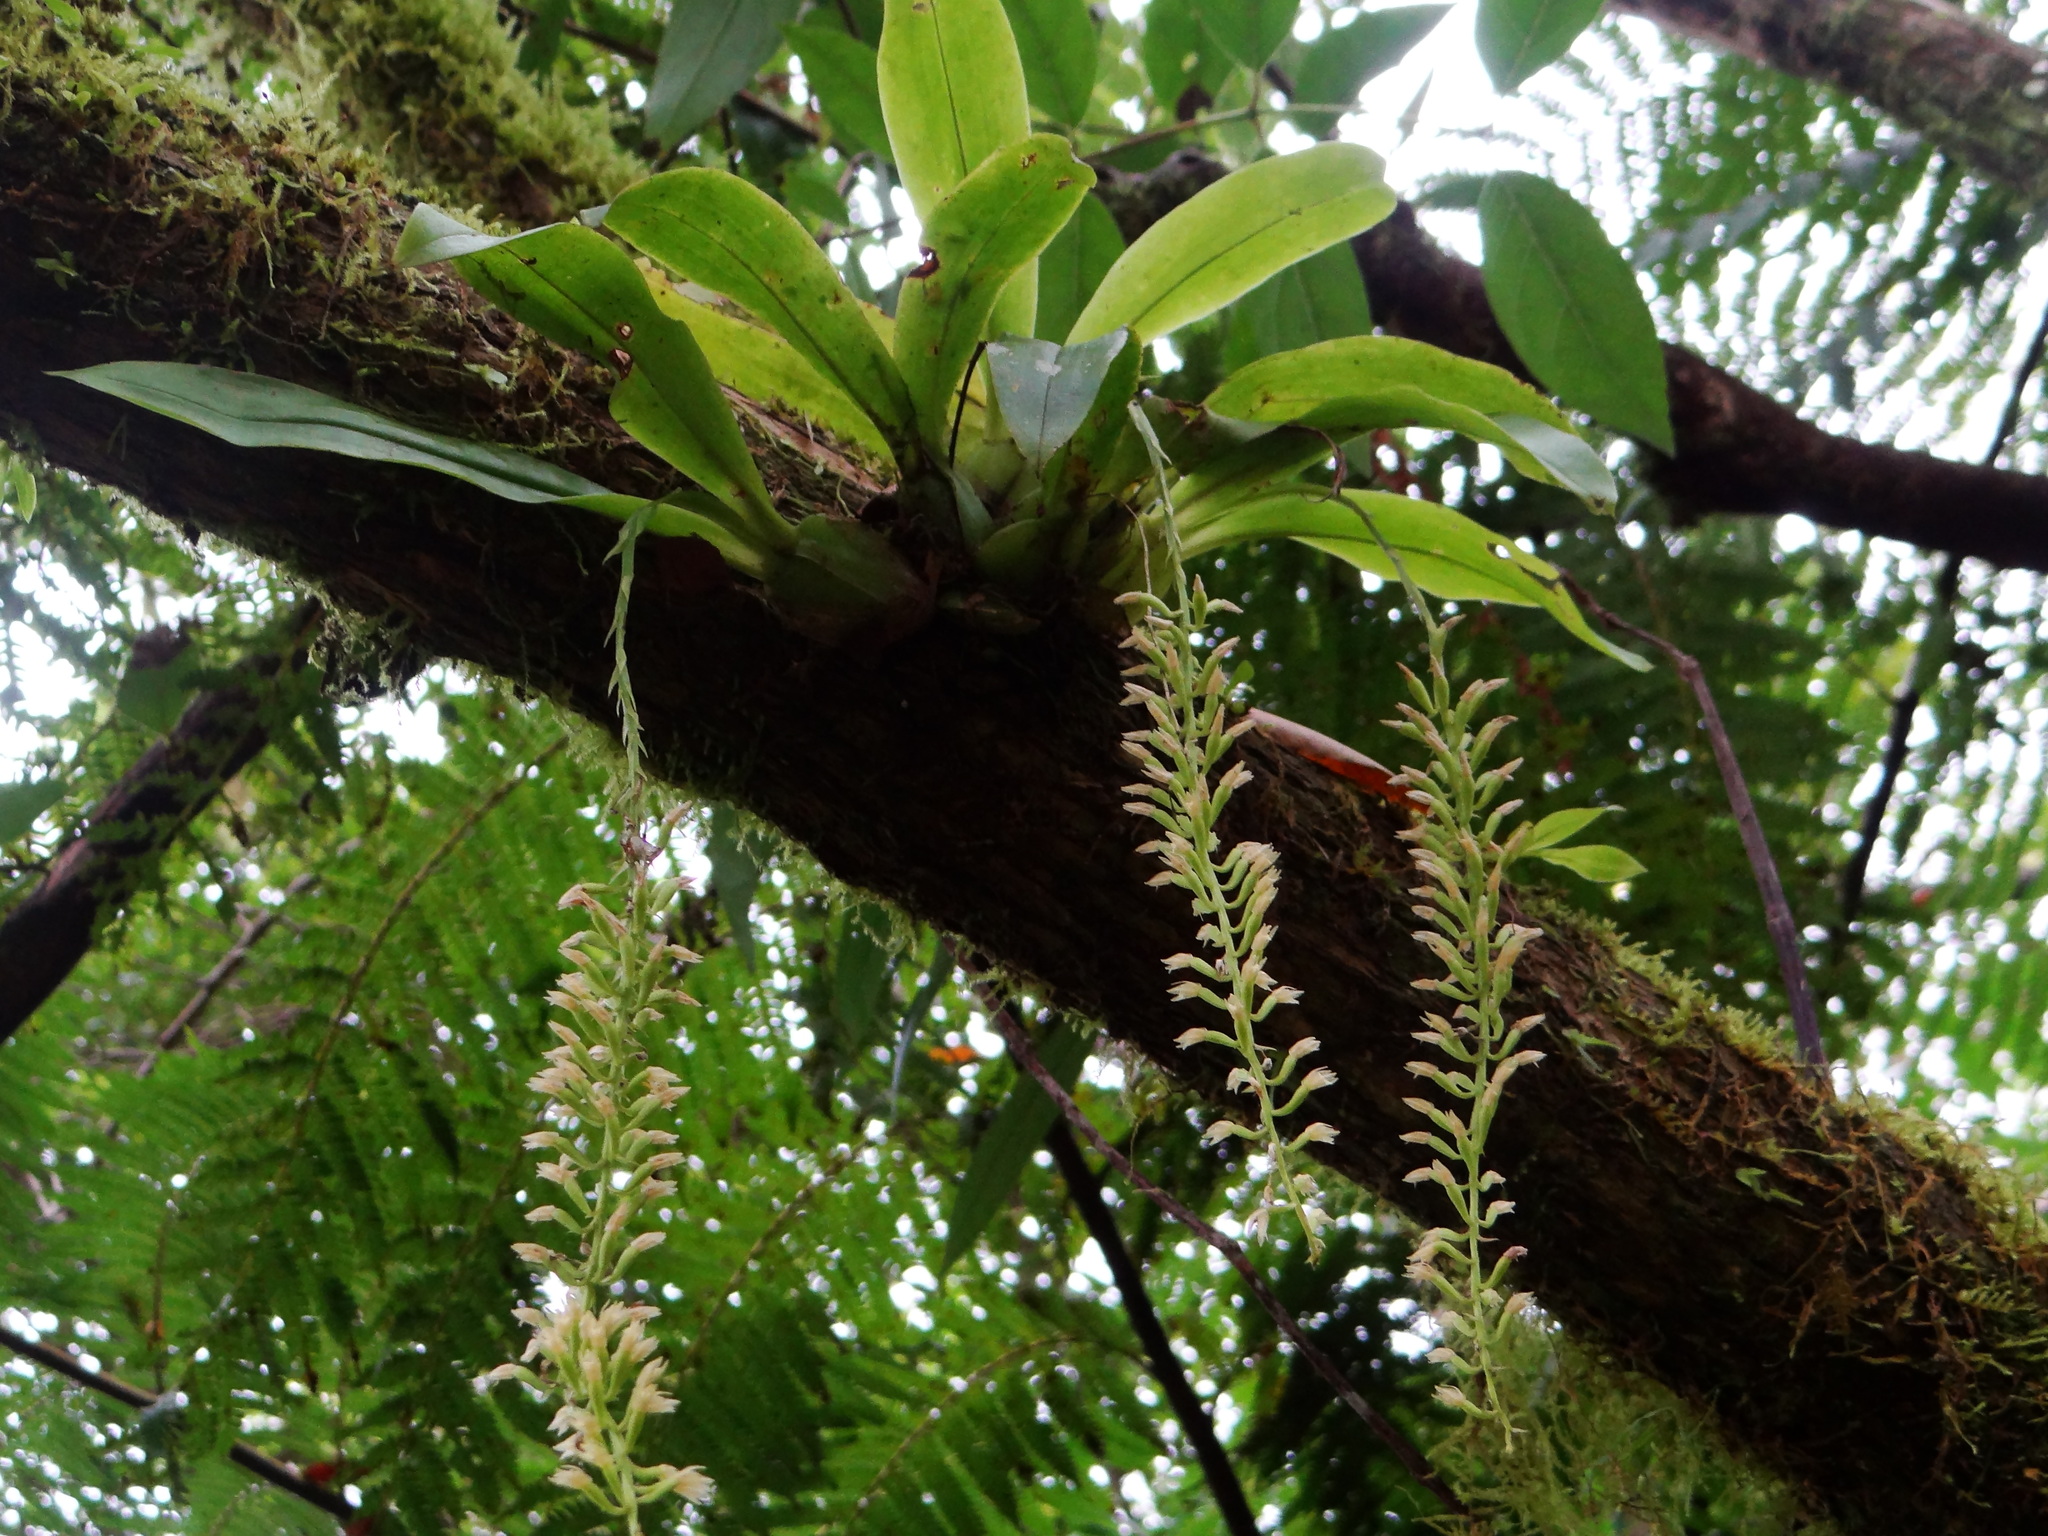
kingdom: Plantae
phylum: Tracheophyta
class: Liliopsida
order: Asparagales
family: Orchidaceae
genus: Liparis
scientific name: Liparis elliptica
